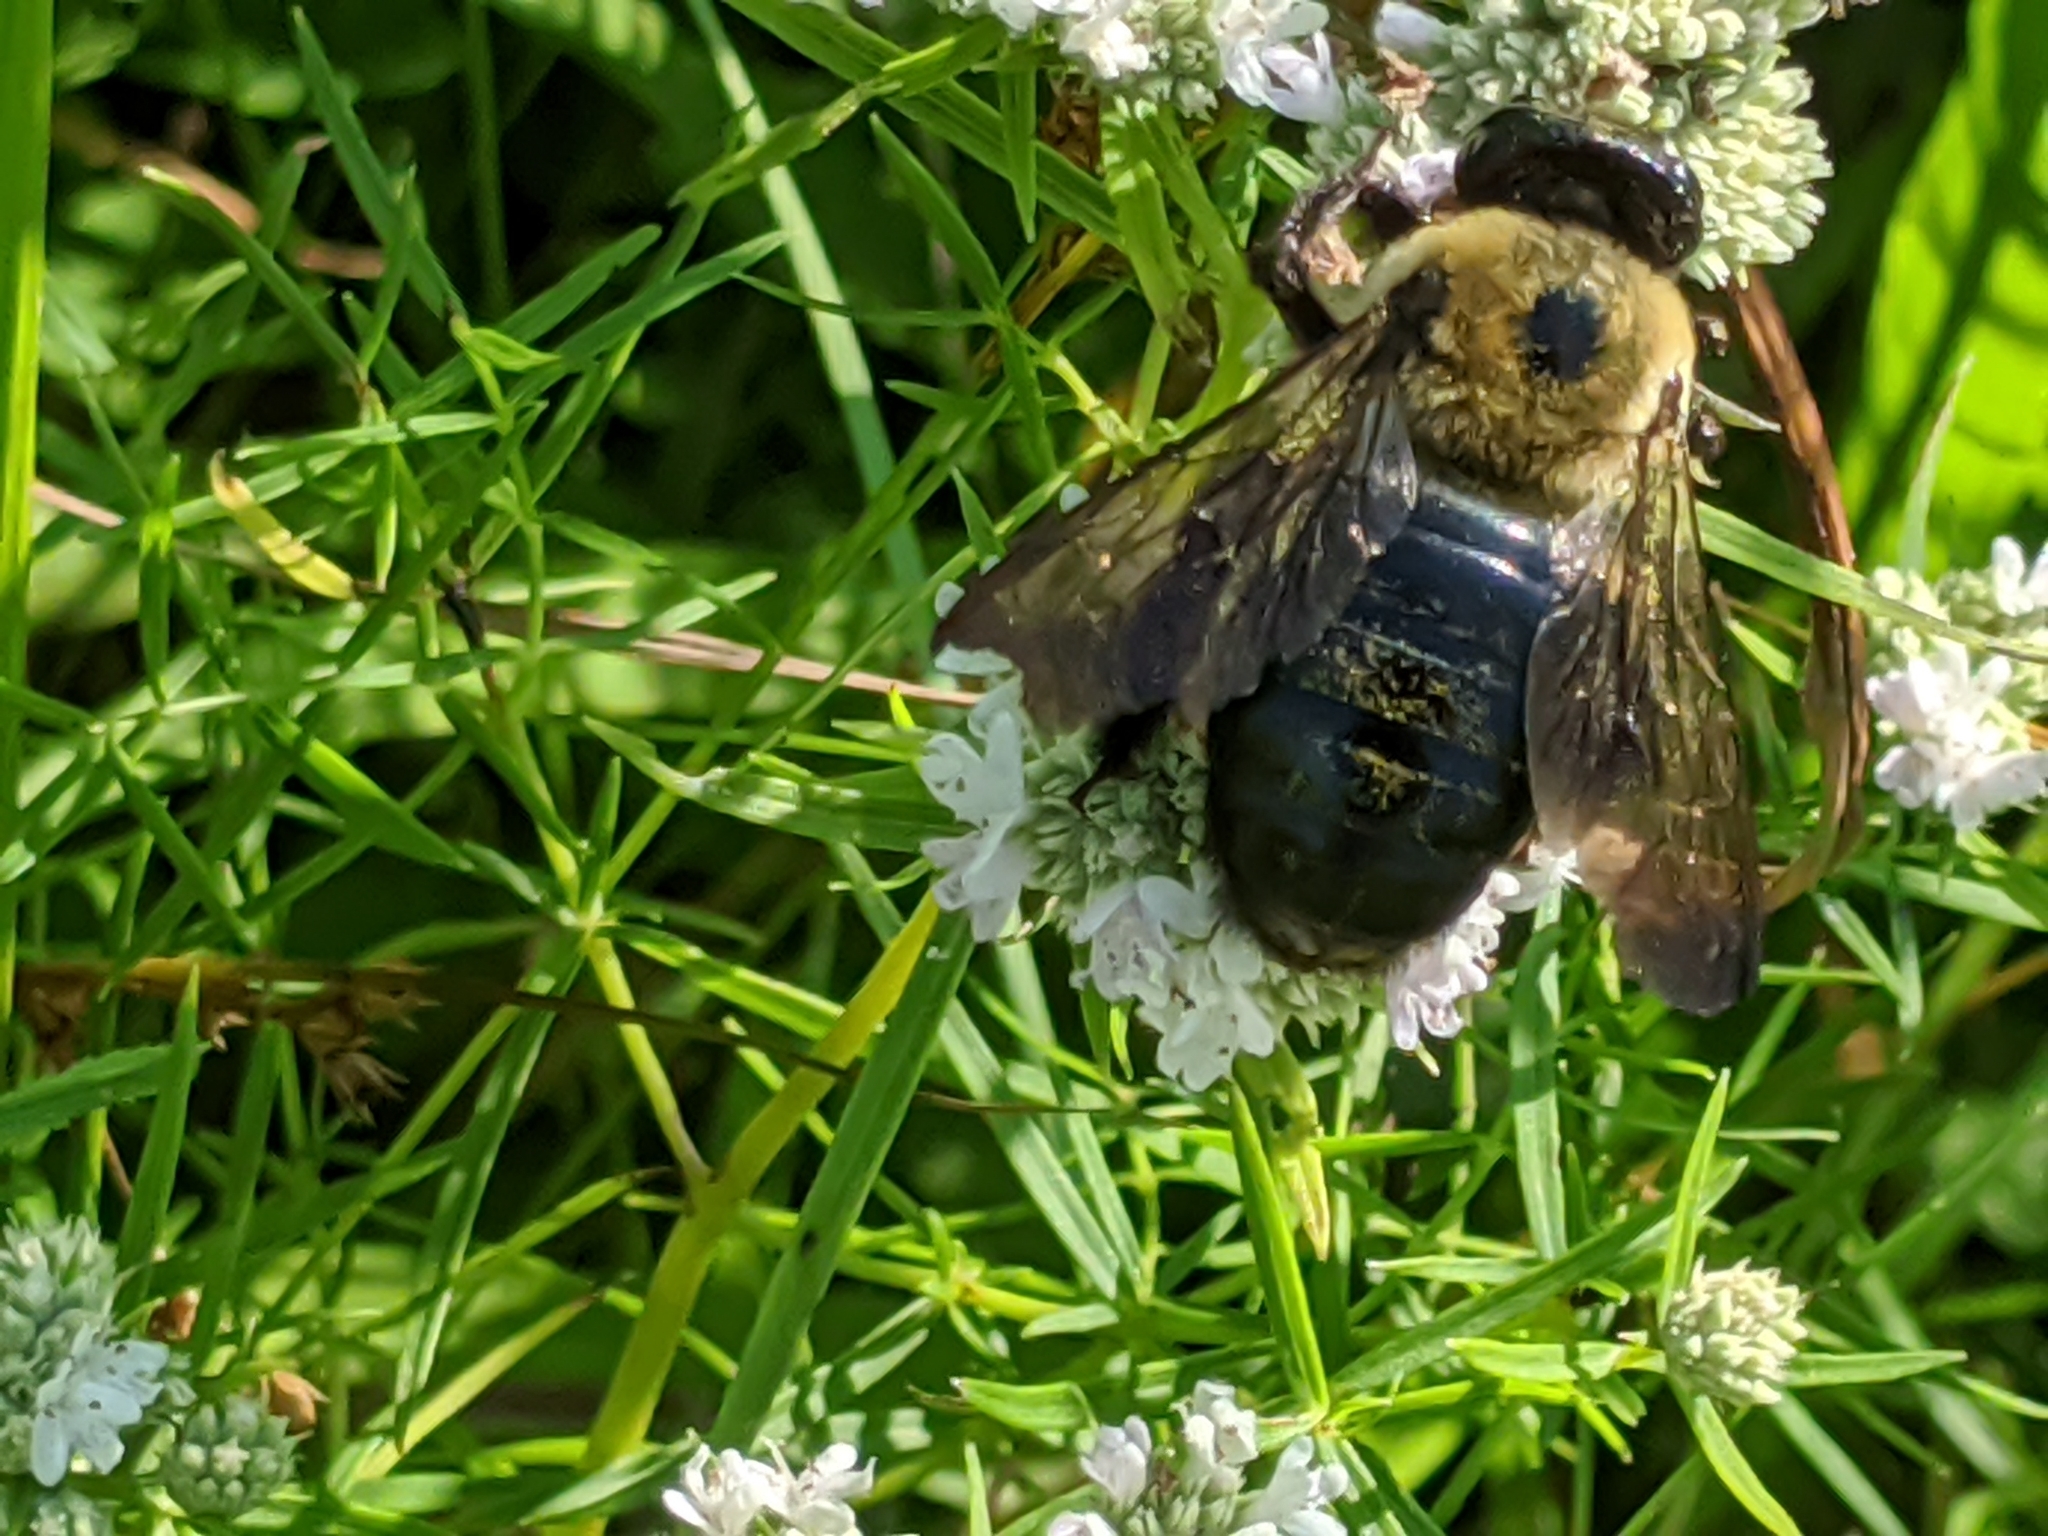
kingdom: Animalia
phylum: Arthropoda
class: Insecta
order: Hymenoptera
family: Apidae
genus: Xylocopa
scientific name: Xylocopa virginica
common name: Carpenter bee
